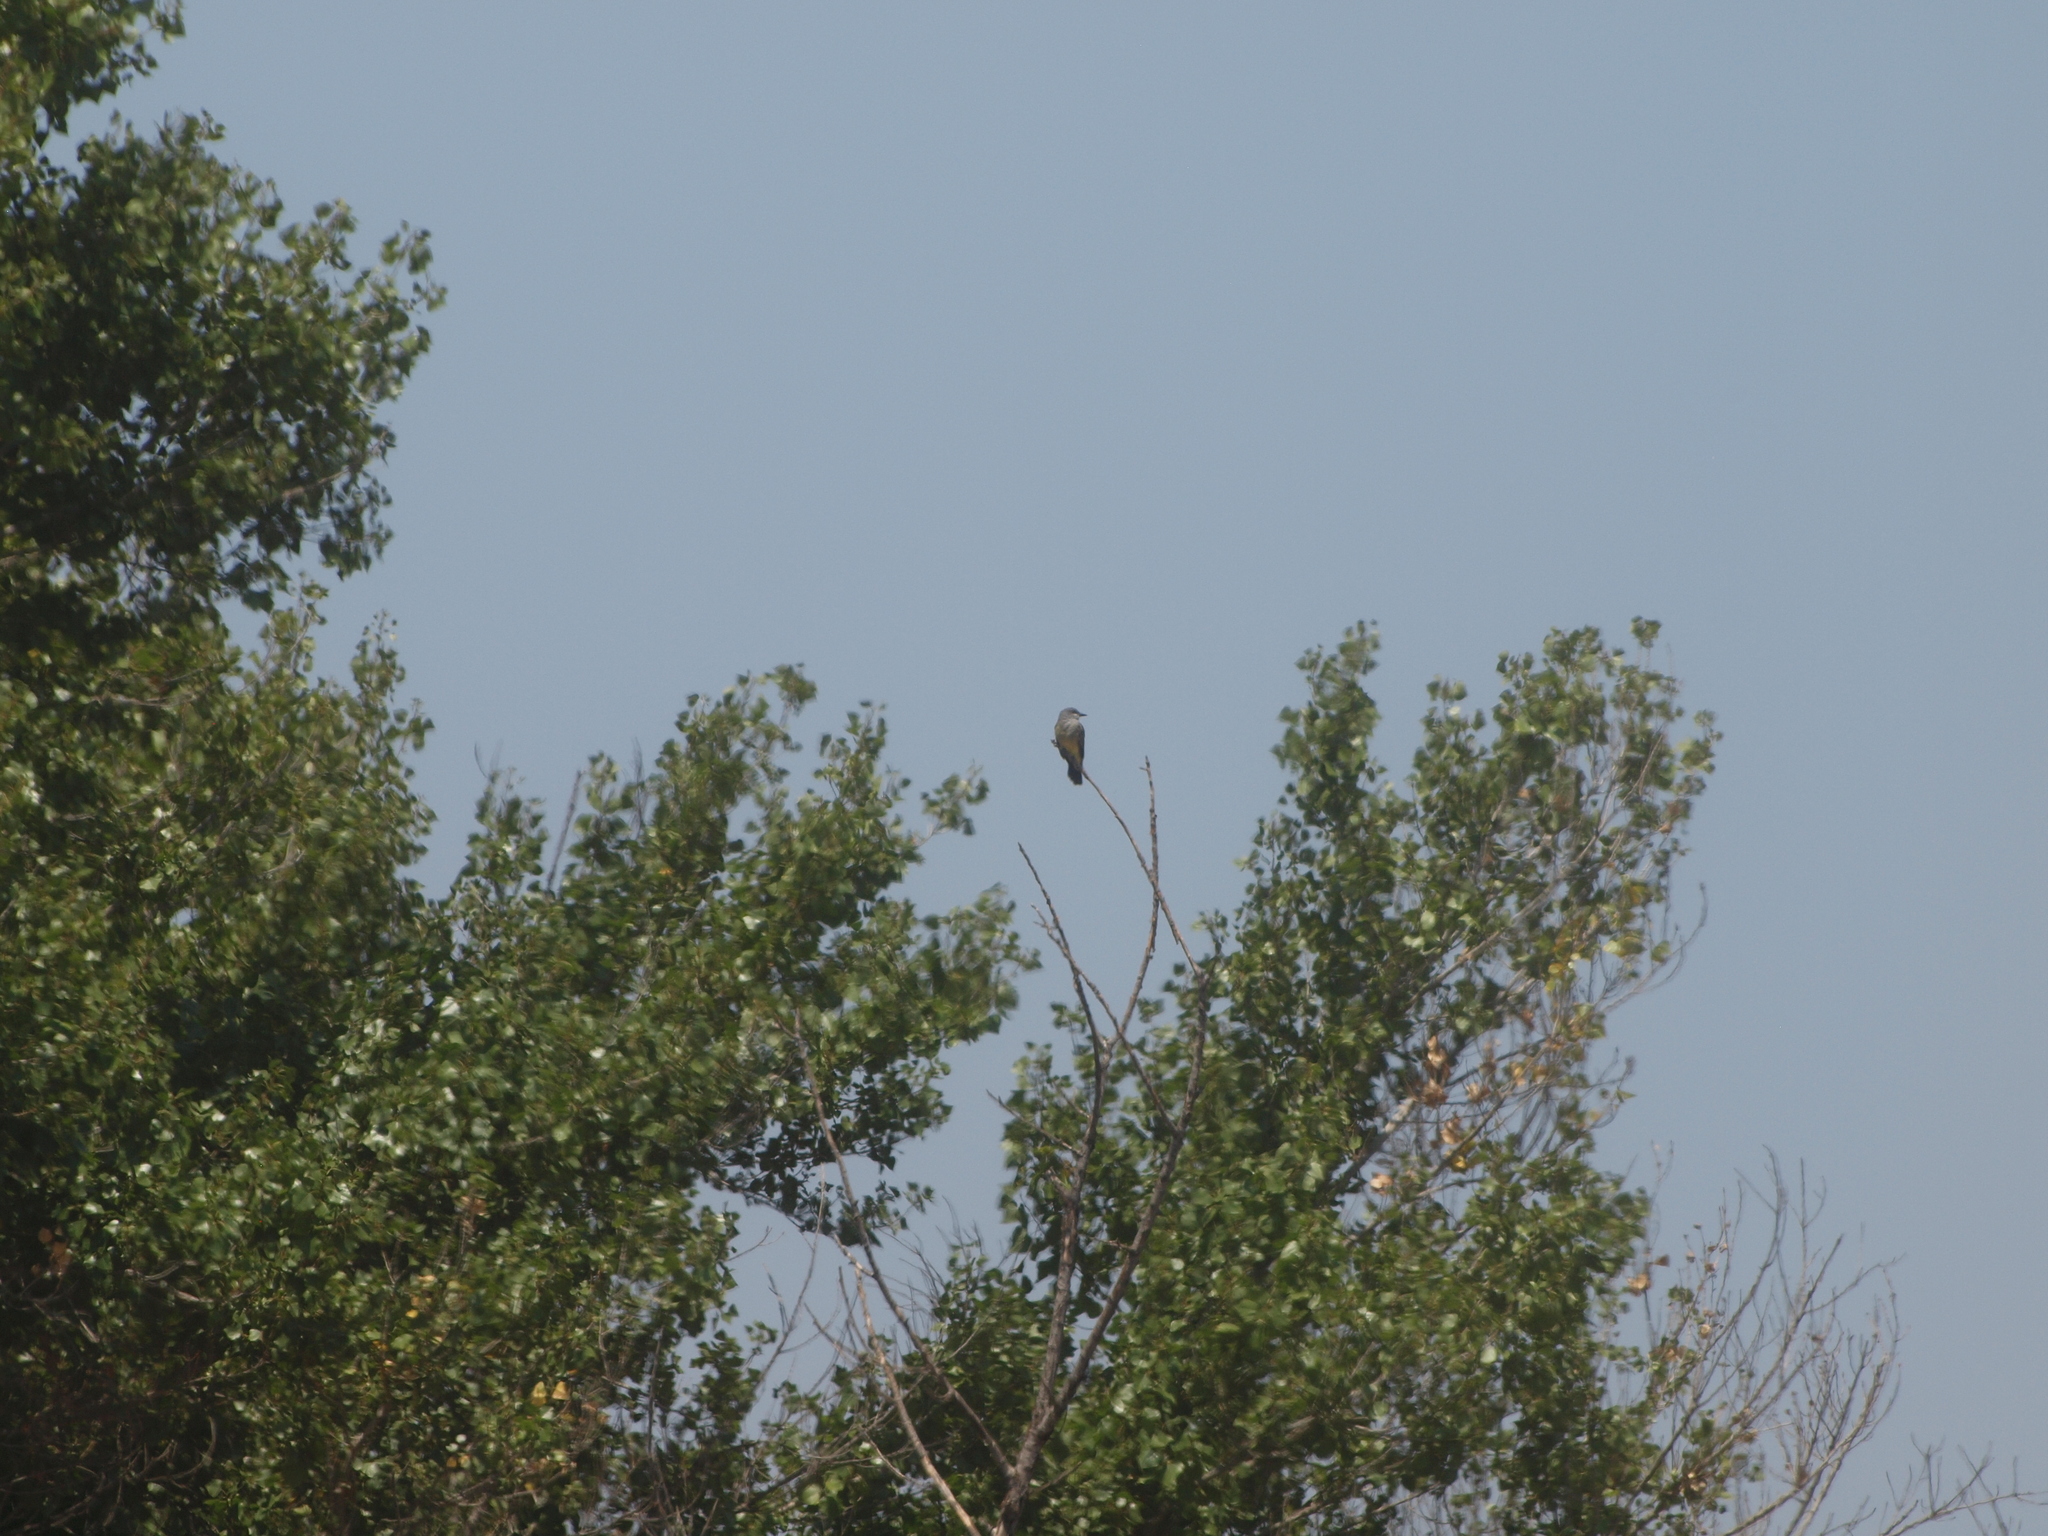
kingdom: Animalia
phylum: Chordata
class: Aves
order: Passeriformes
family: Tyrannidae
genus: Tyrannus
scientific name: Tyrannus vociferans
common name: Cassin's kingbird
